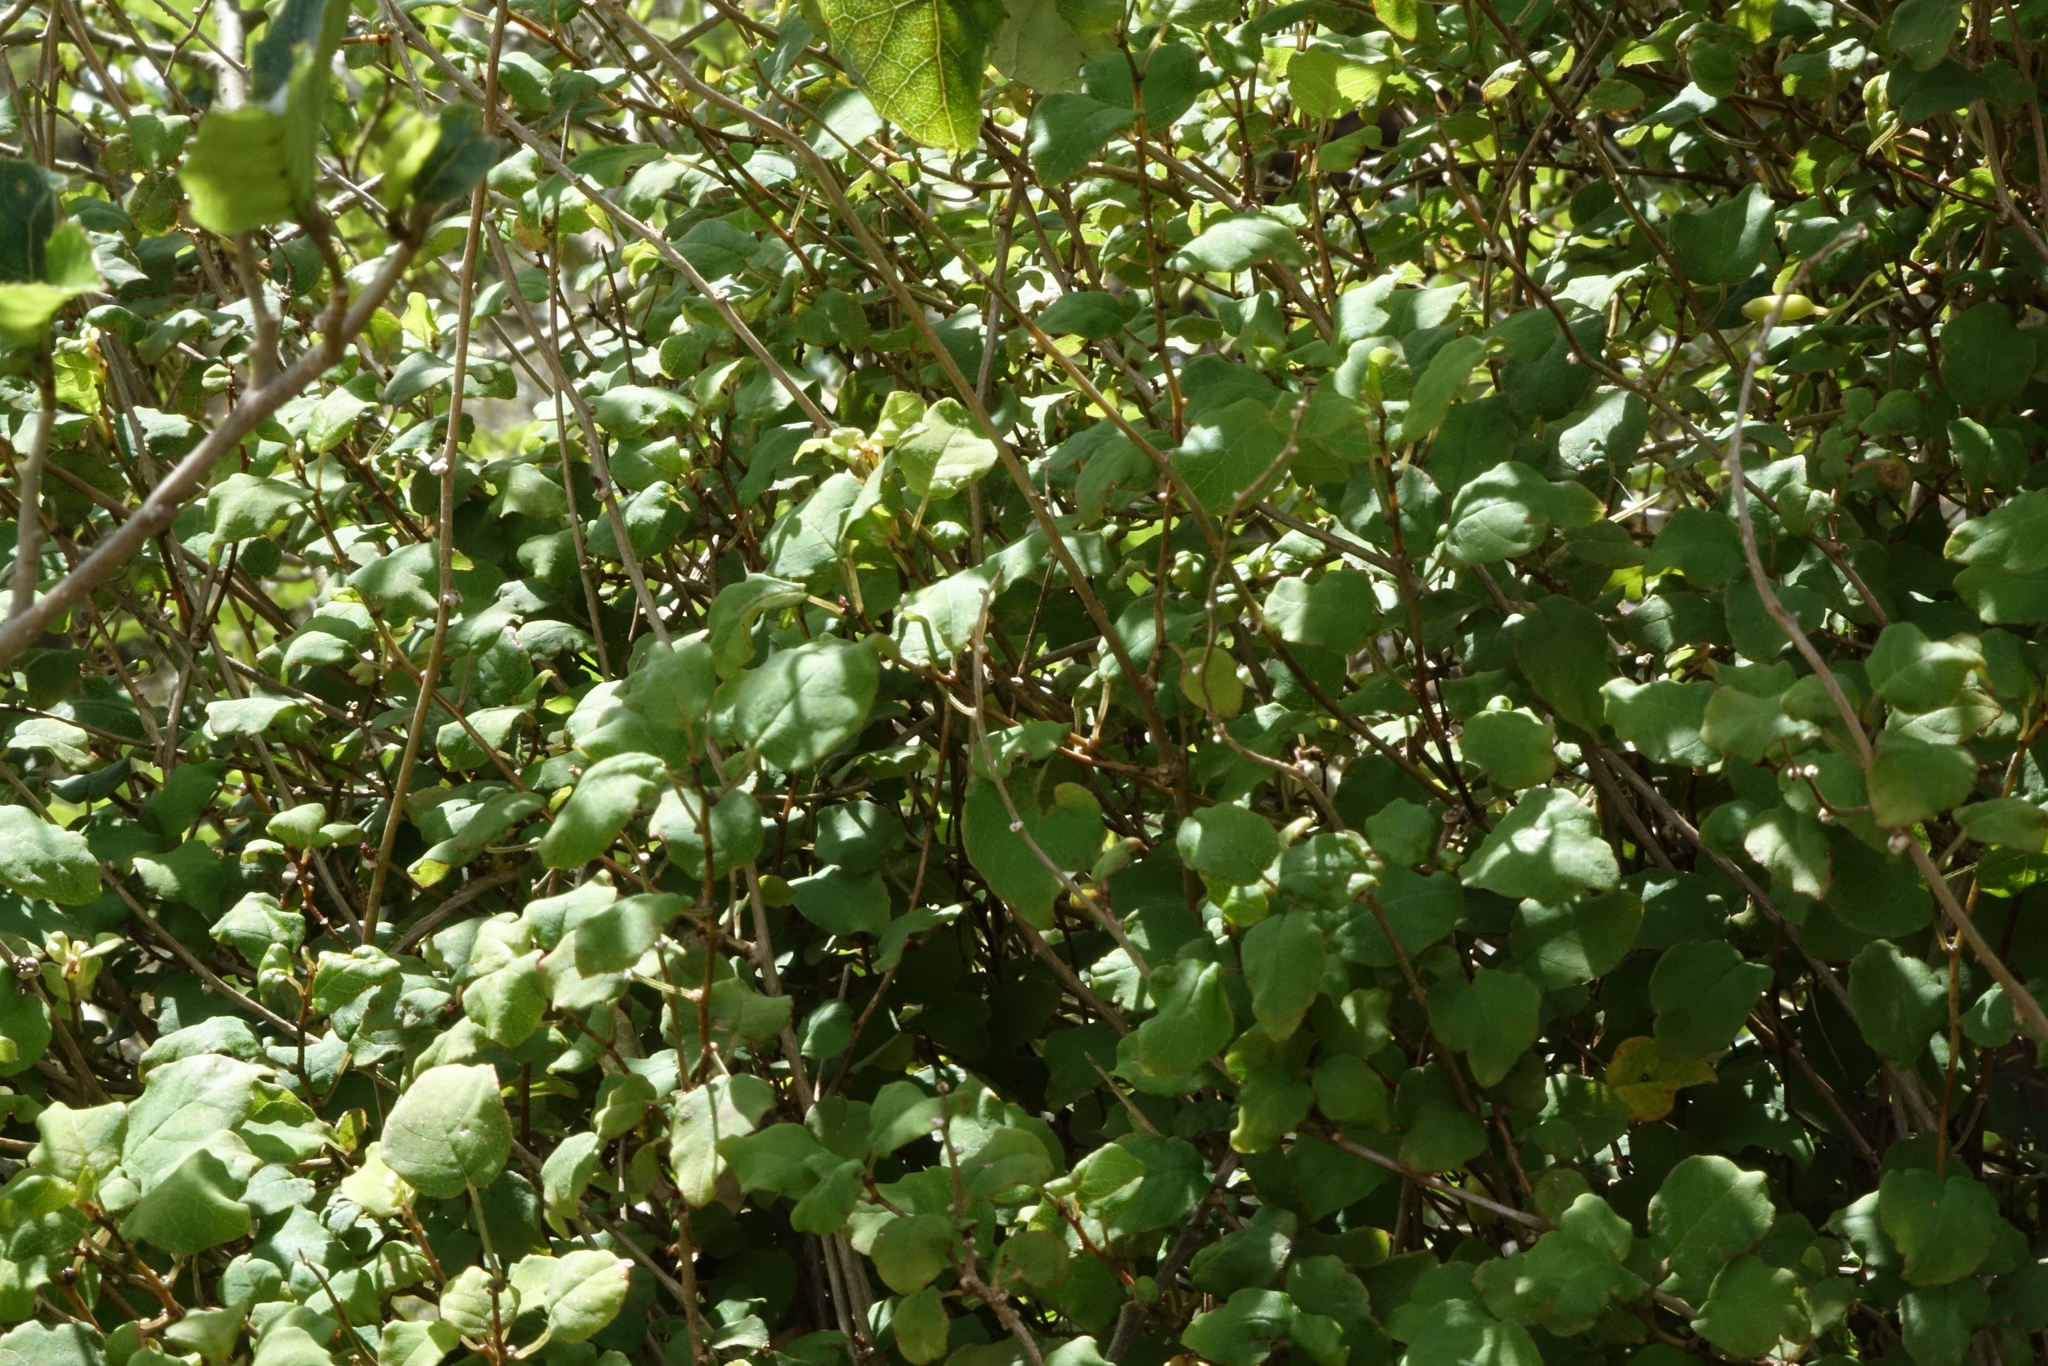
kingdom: Plantae
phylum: Tracheophyta
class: Magnoliopsida
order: Myrtales
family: Onagraceae
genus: Fuchsia
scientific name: Fuchsia perscandens
